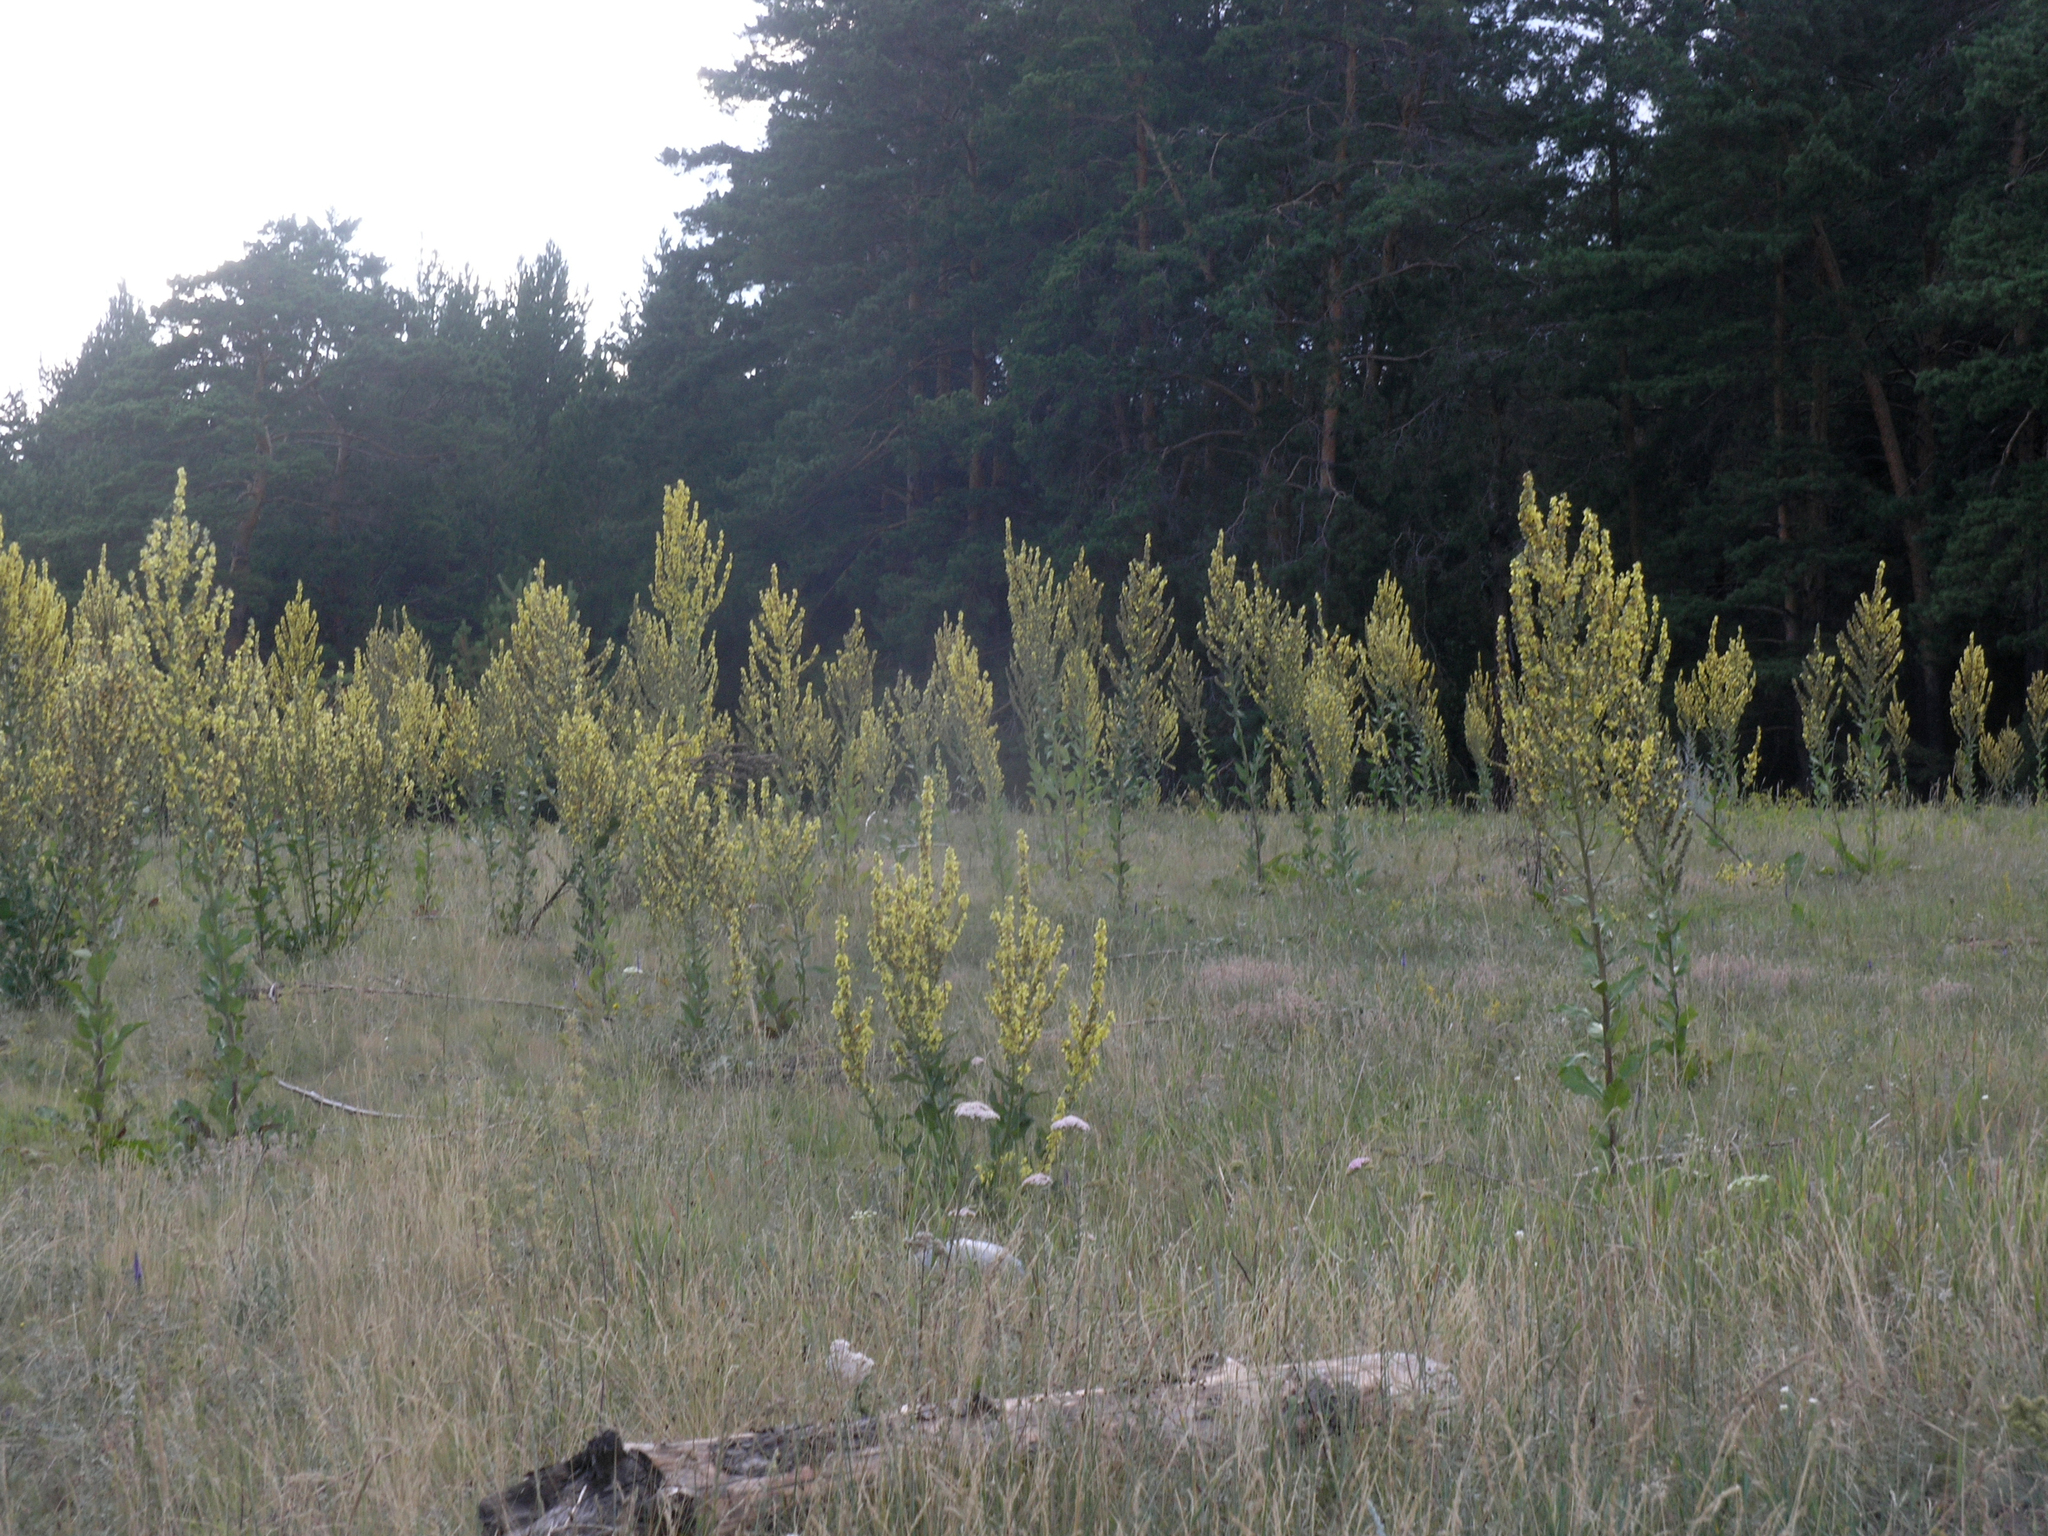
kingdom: Plantae
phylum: Tracheophyta
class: Magnoliopsida
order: Lamiales
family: Scrophulariaceae
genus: Verbascum
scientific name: Verbascum lychnitis
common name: White mullein
